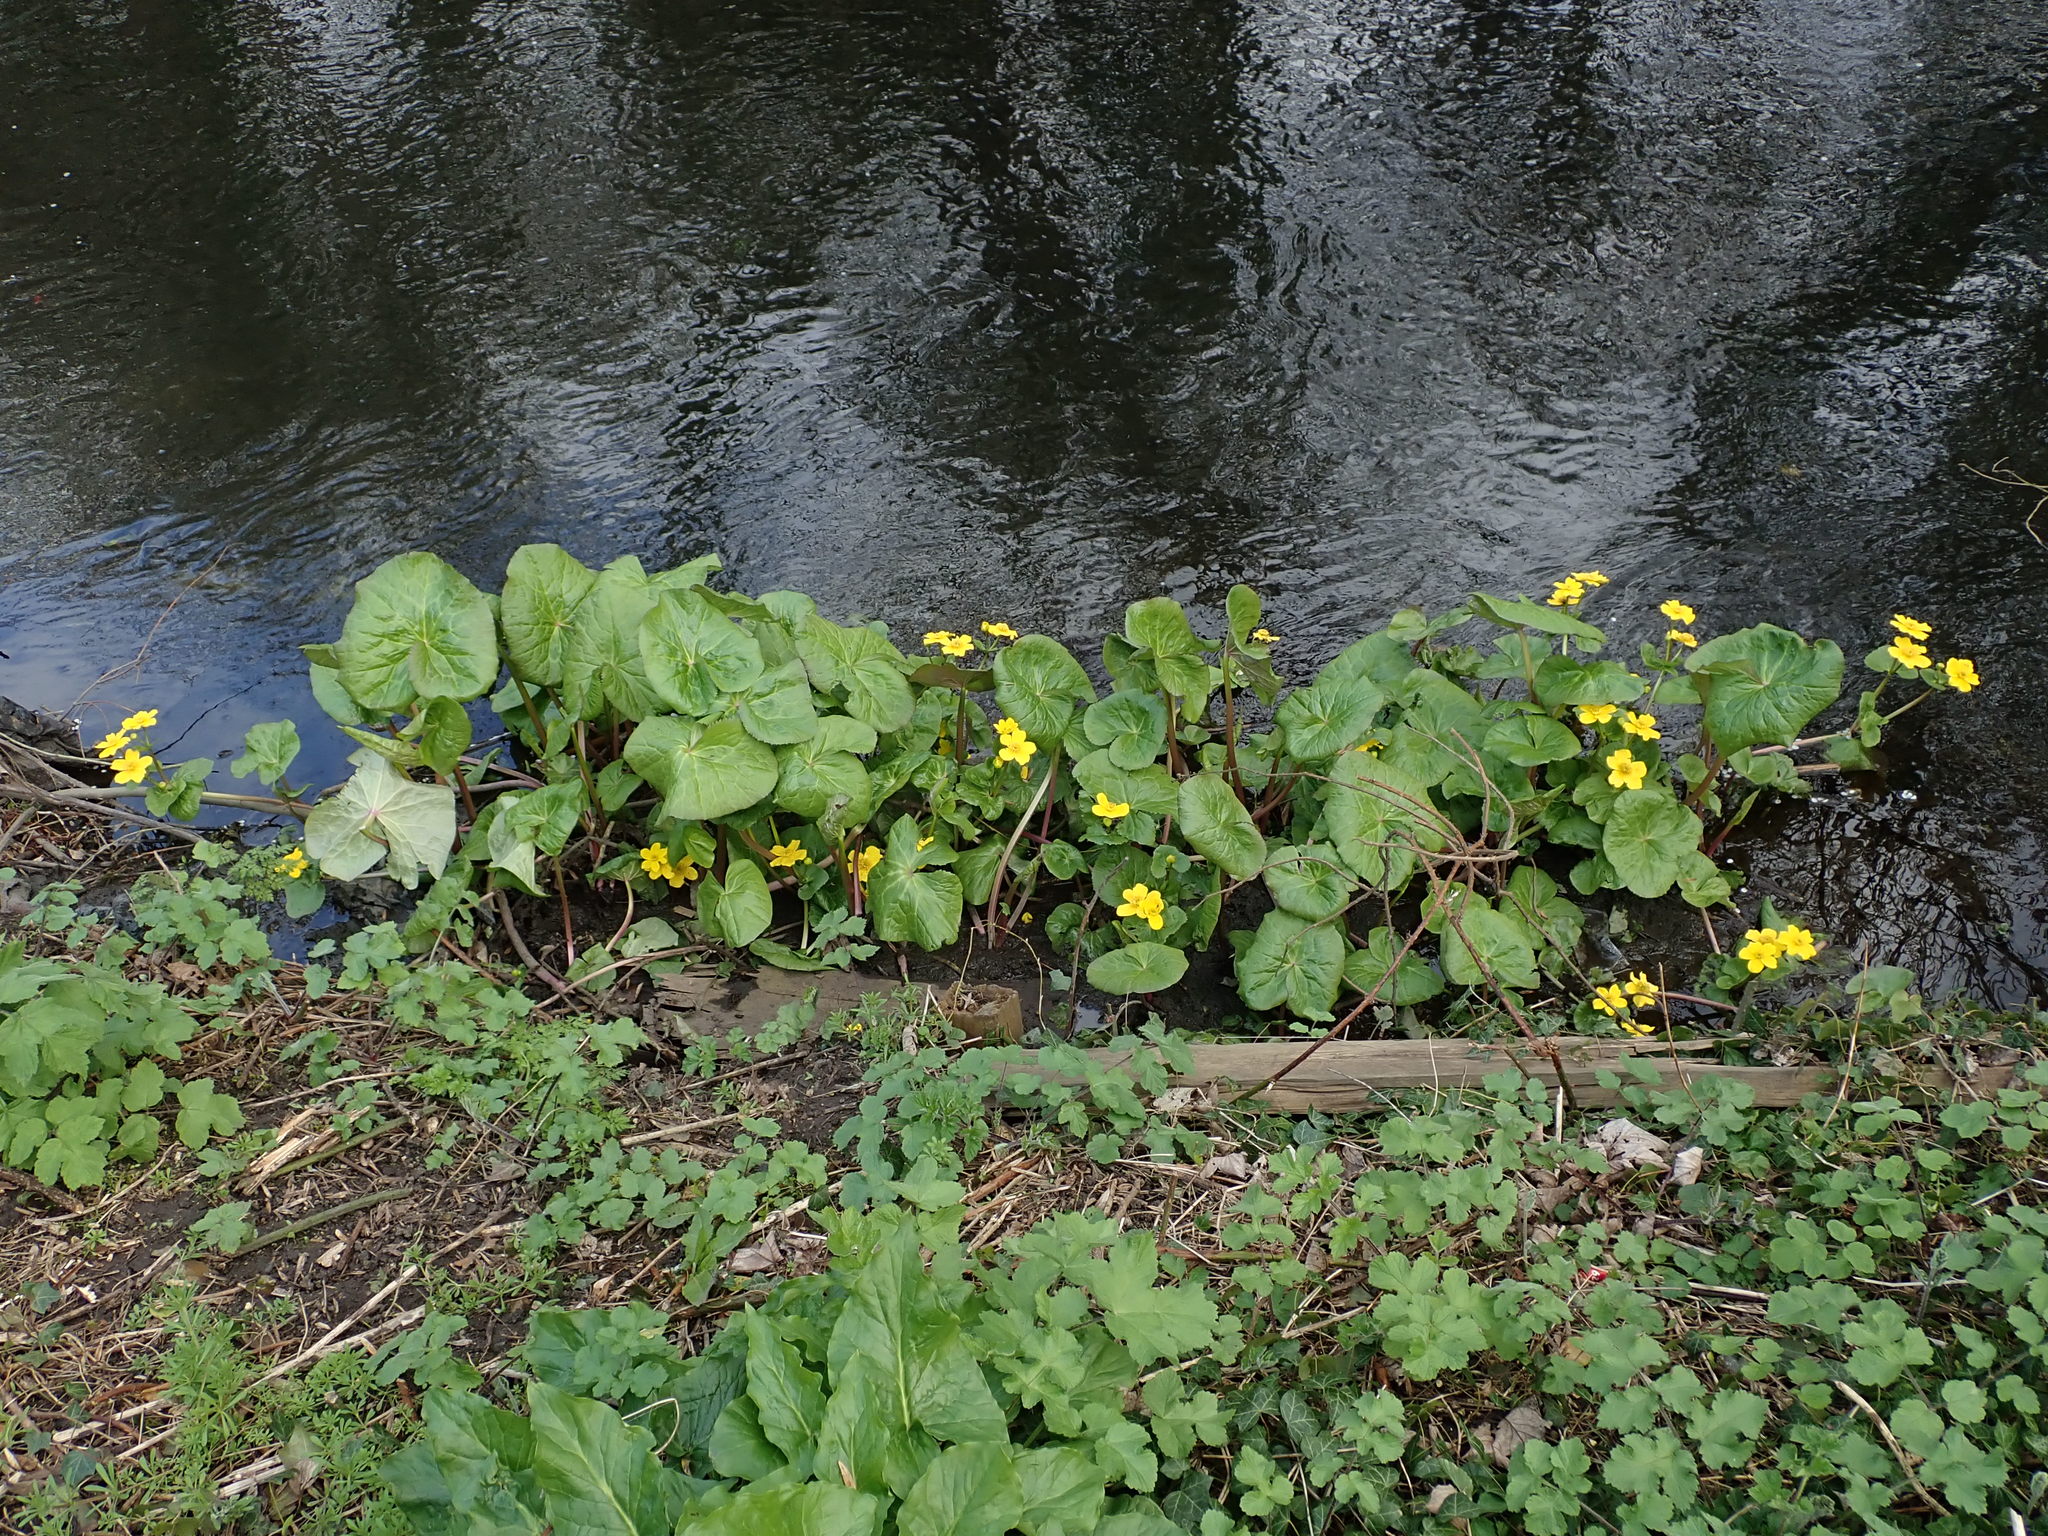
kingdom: Plantae
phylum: Tracheophyta
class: Magnoliopsida
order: Ranunculales
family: Ranunculaceae
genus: Caltha
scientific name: Caltha palustris
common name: Marsh marigold
